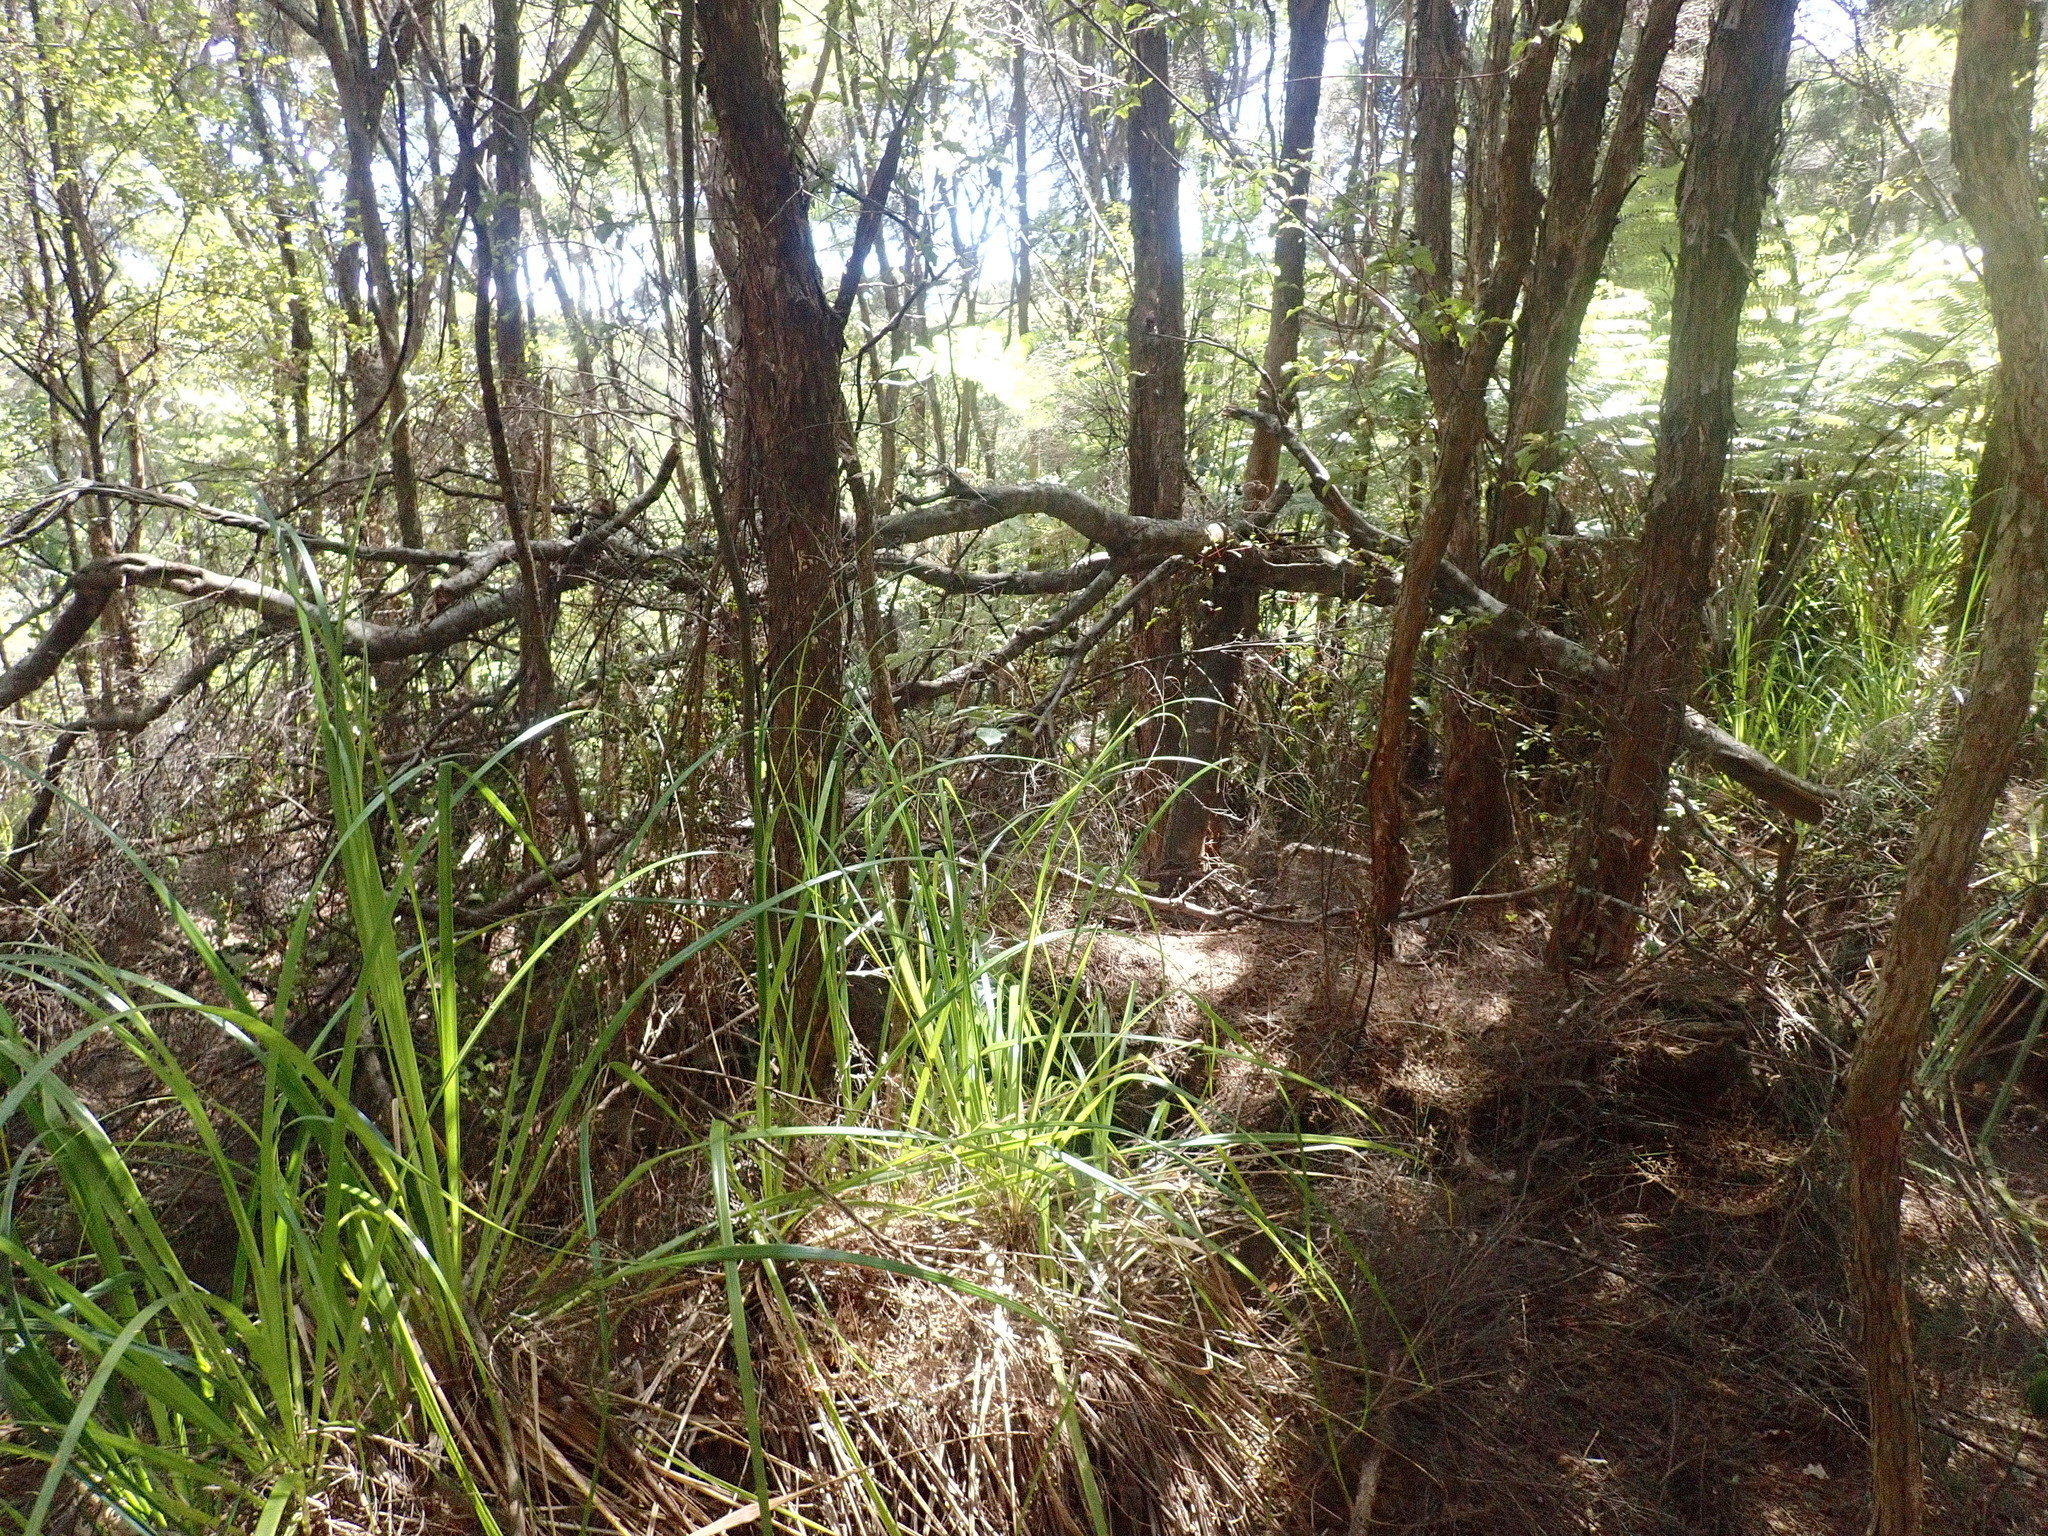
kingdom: Plantae
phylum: Tracheophyta
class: Magnoliopsida
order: Proteales
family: Proteaceae
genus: Hakea
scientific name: Hakea sericea
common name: Needle bush
